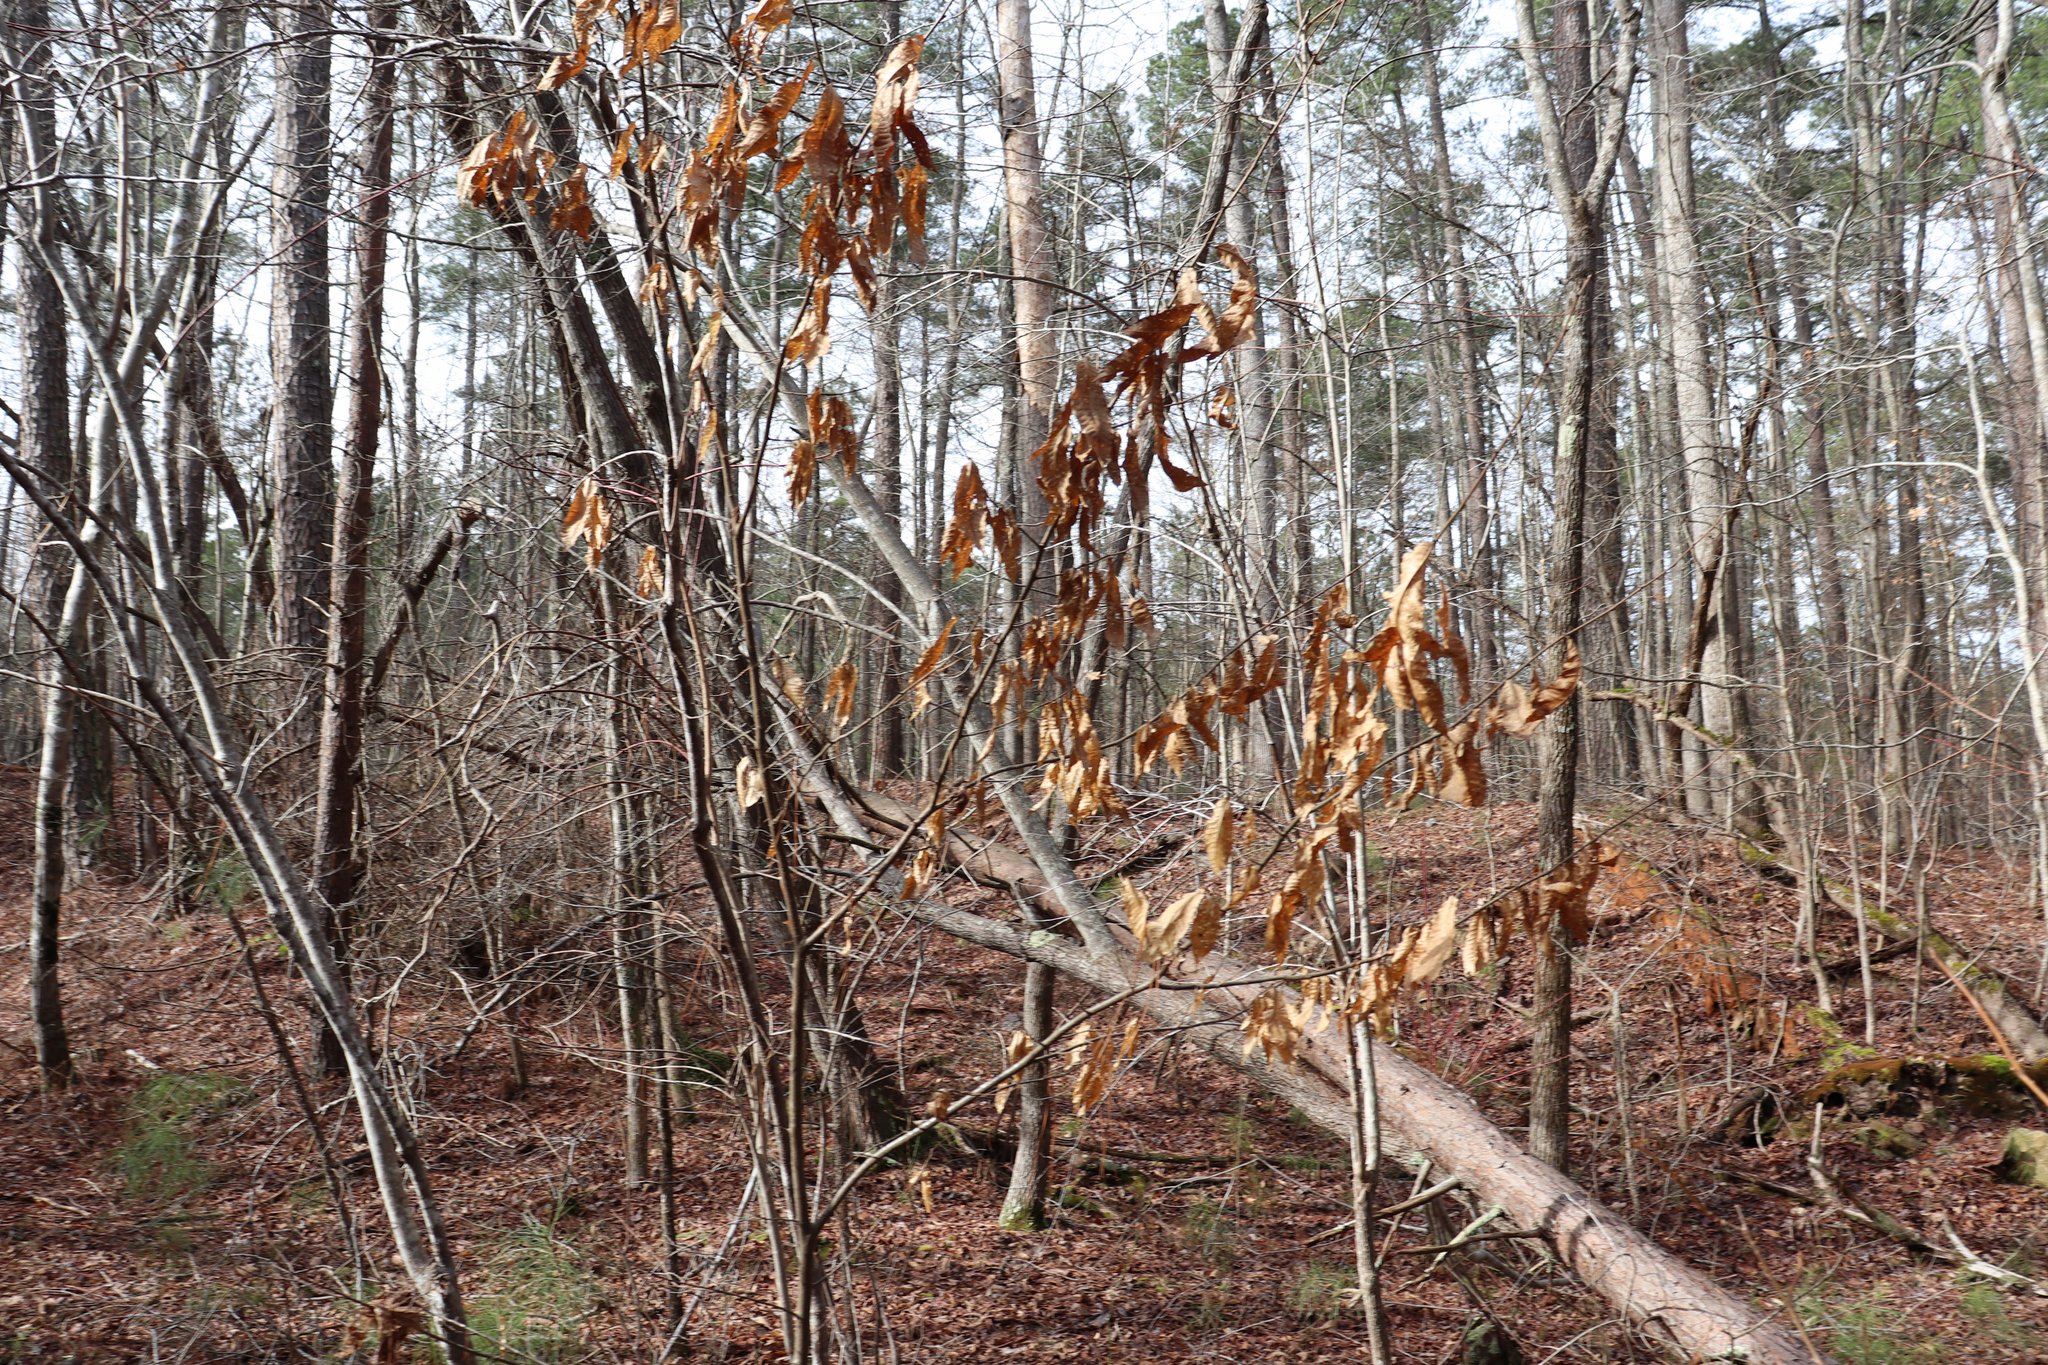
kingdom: Plantae
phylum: Tracheophyta
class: Magnoliopsida
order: Fagales
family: Fagaceae
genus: Fagus
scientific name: Fagus grandifolia
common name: American beech
